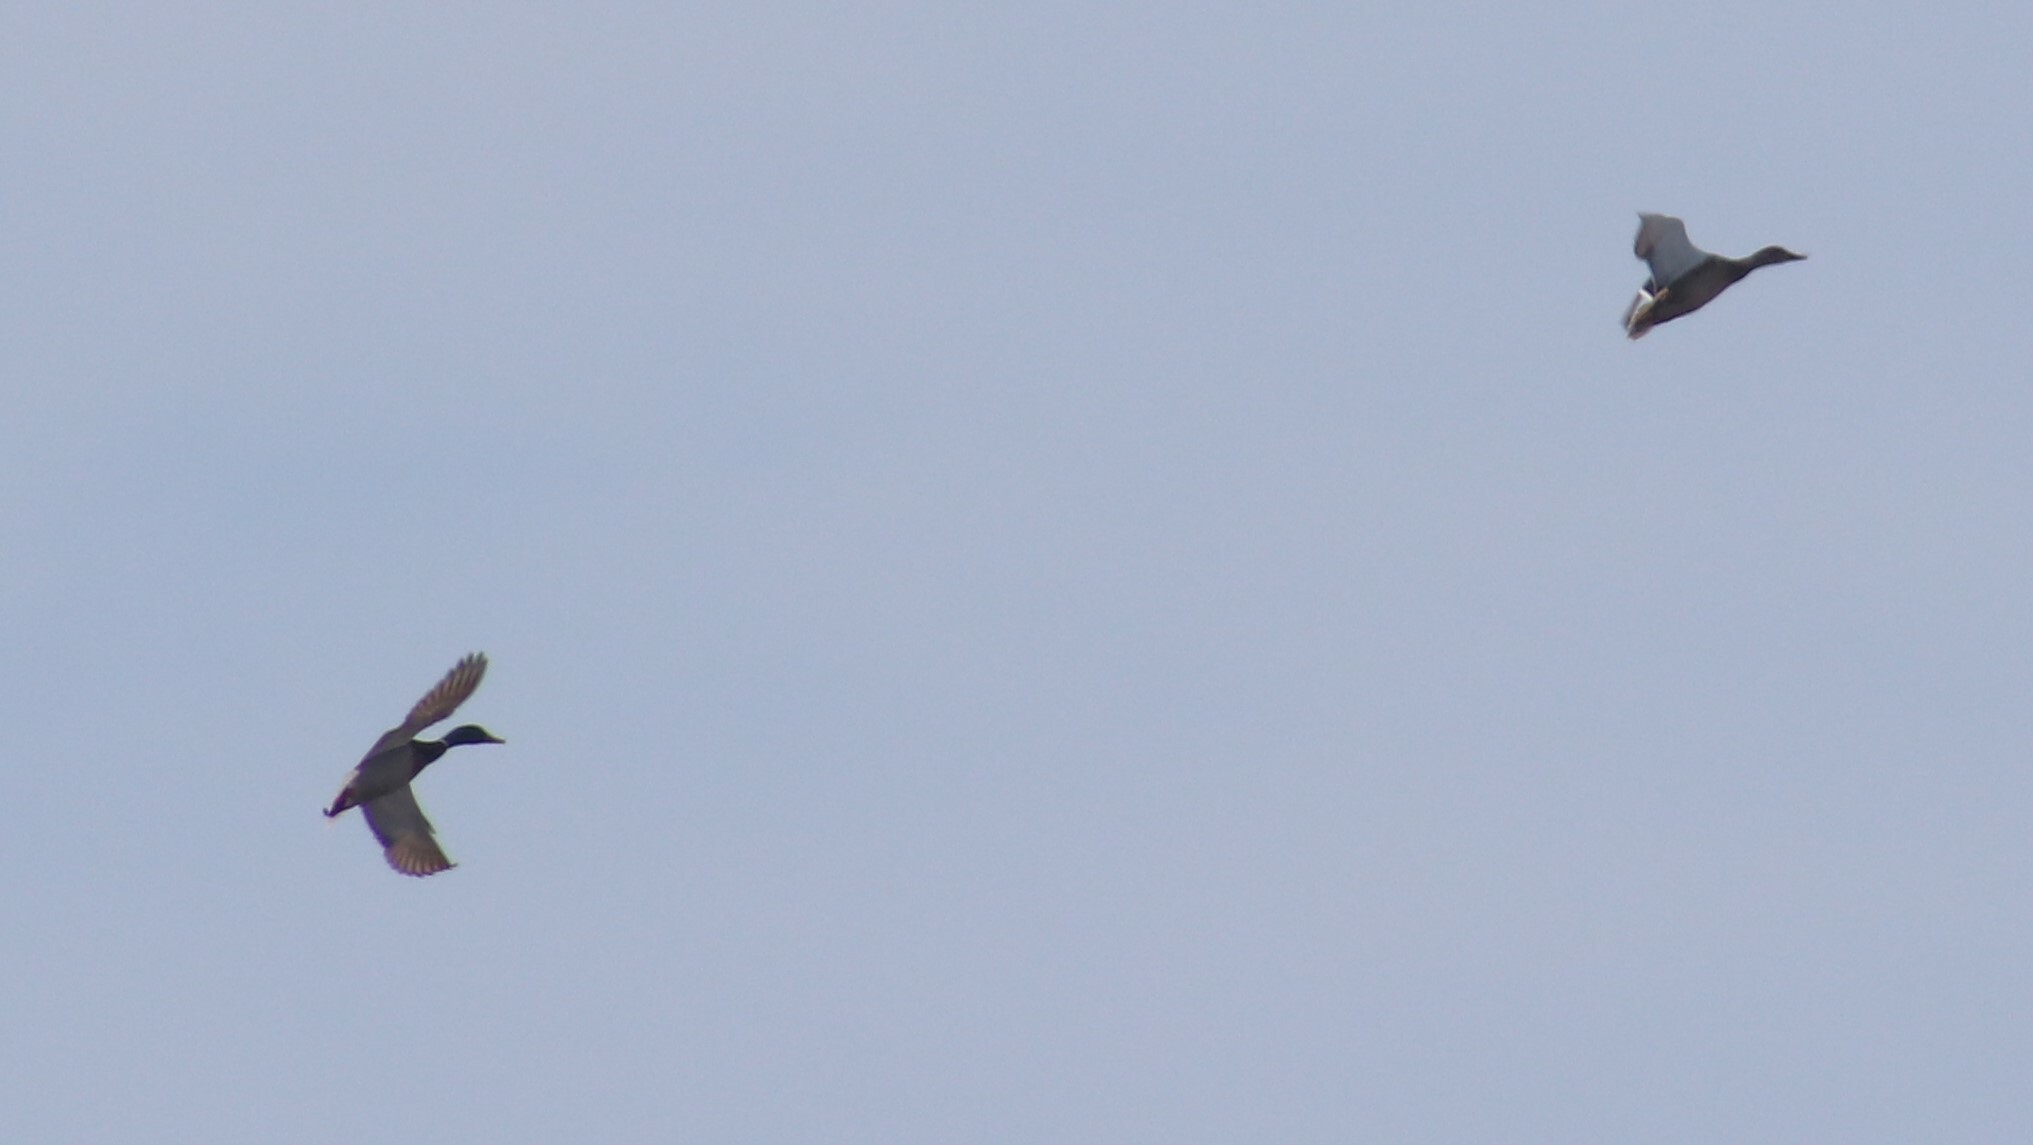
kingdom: Animalia
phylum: Chordata
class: Aves
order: Anseriformes
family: Anatidae
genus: Anas
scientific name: Anas platyrhynchos
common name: Mallard
